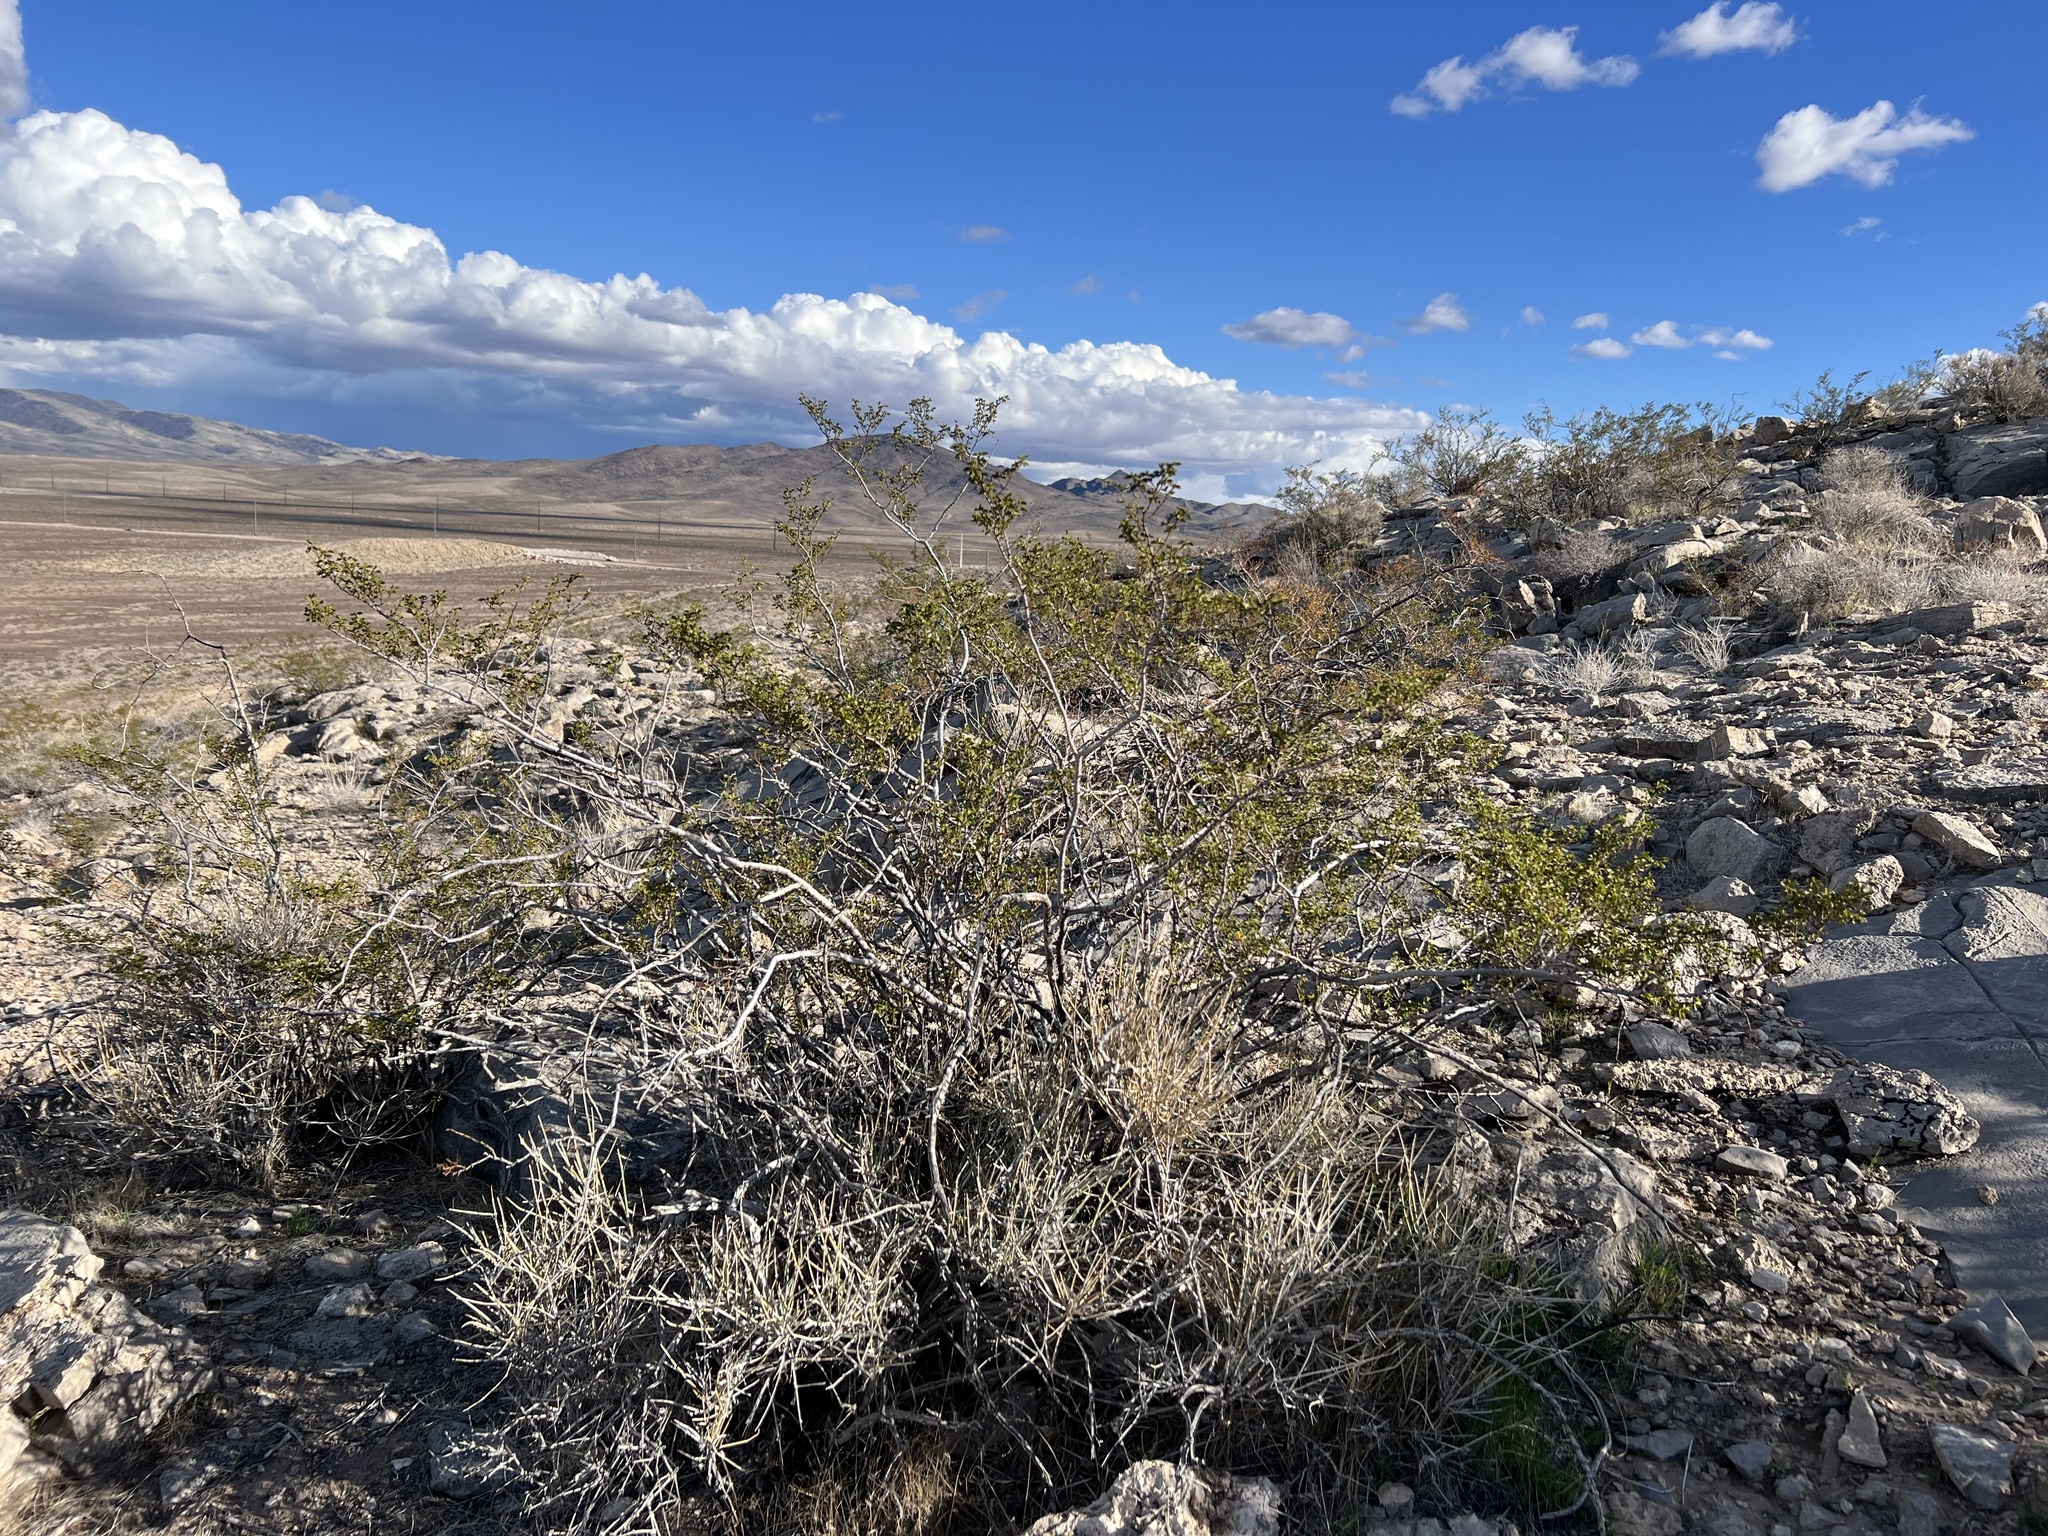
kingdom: Plantae
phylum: Tracheophyta
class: Magnoliopsida
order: Zygophyllales
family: Zygophyllaceae
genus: Larrea
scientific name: Larrea tridentata
